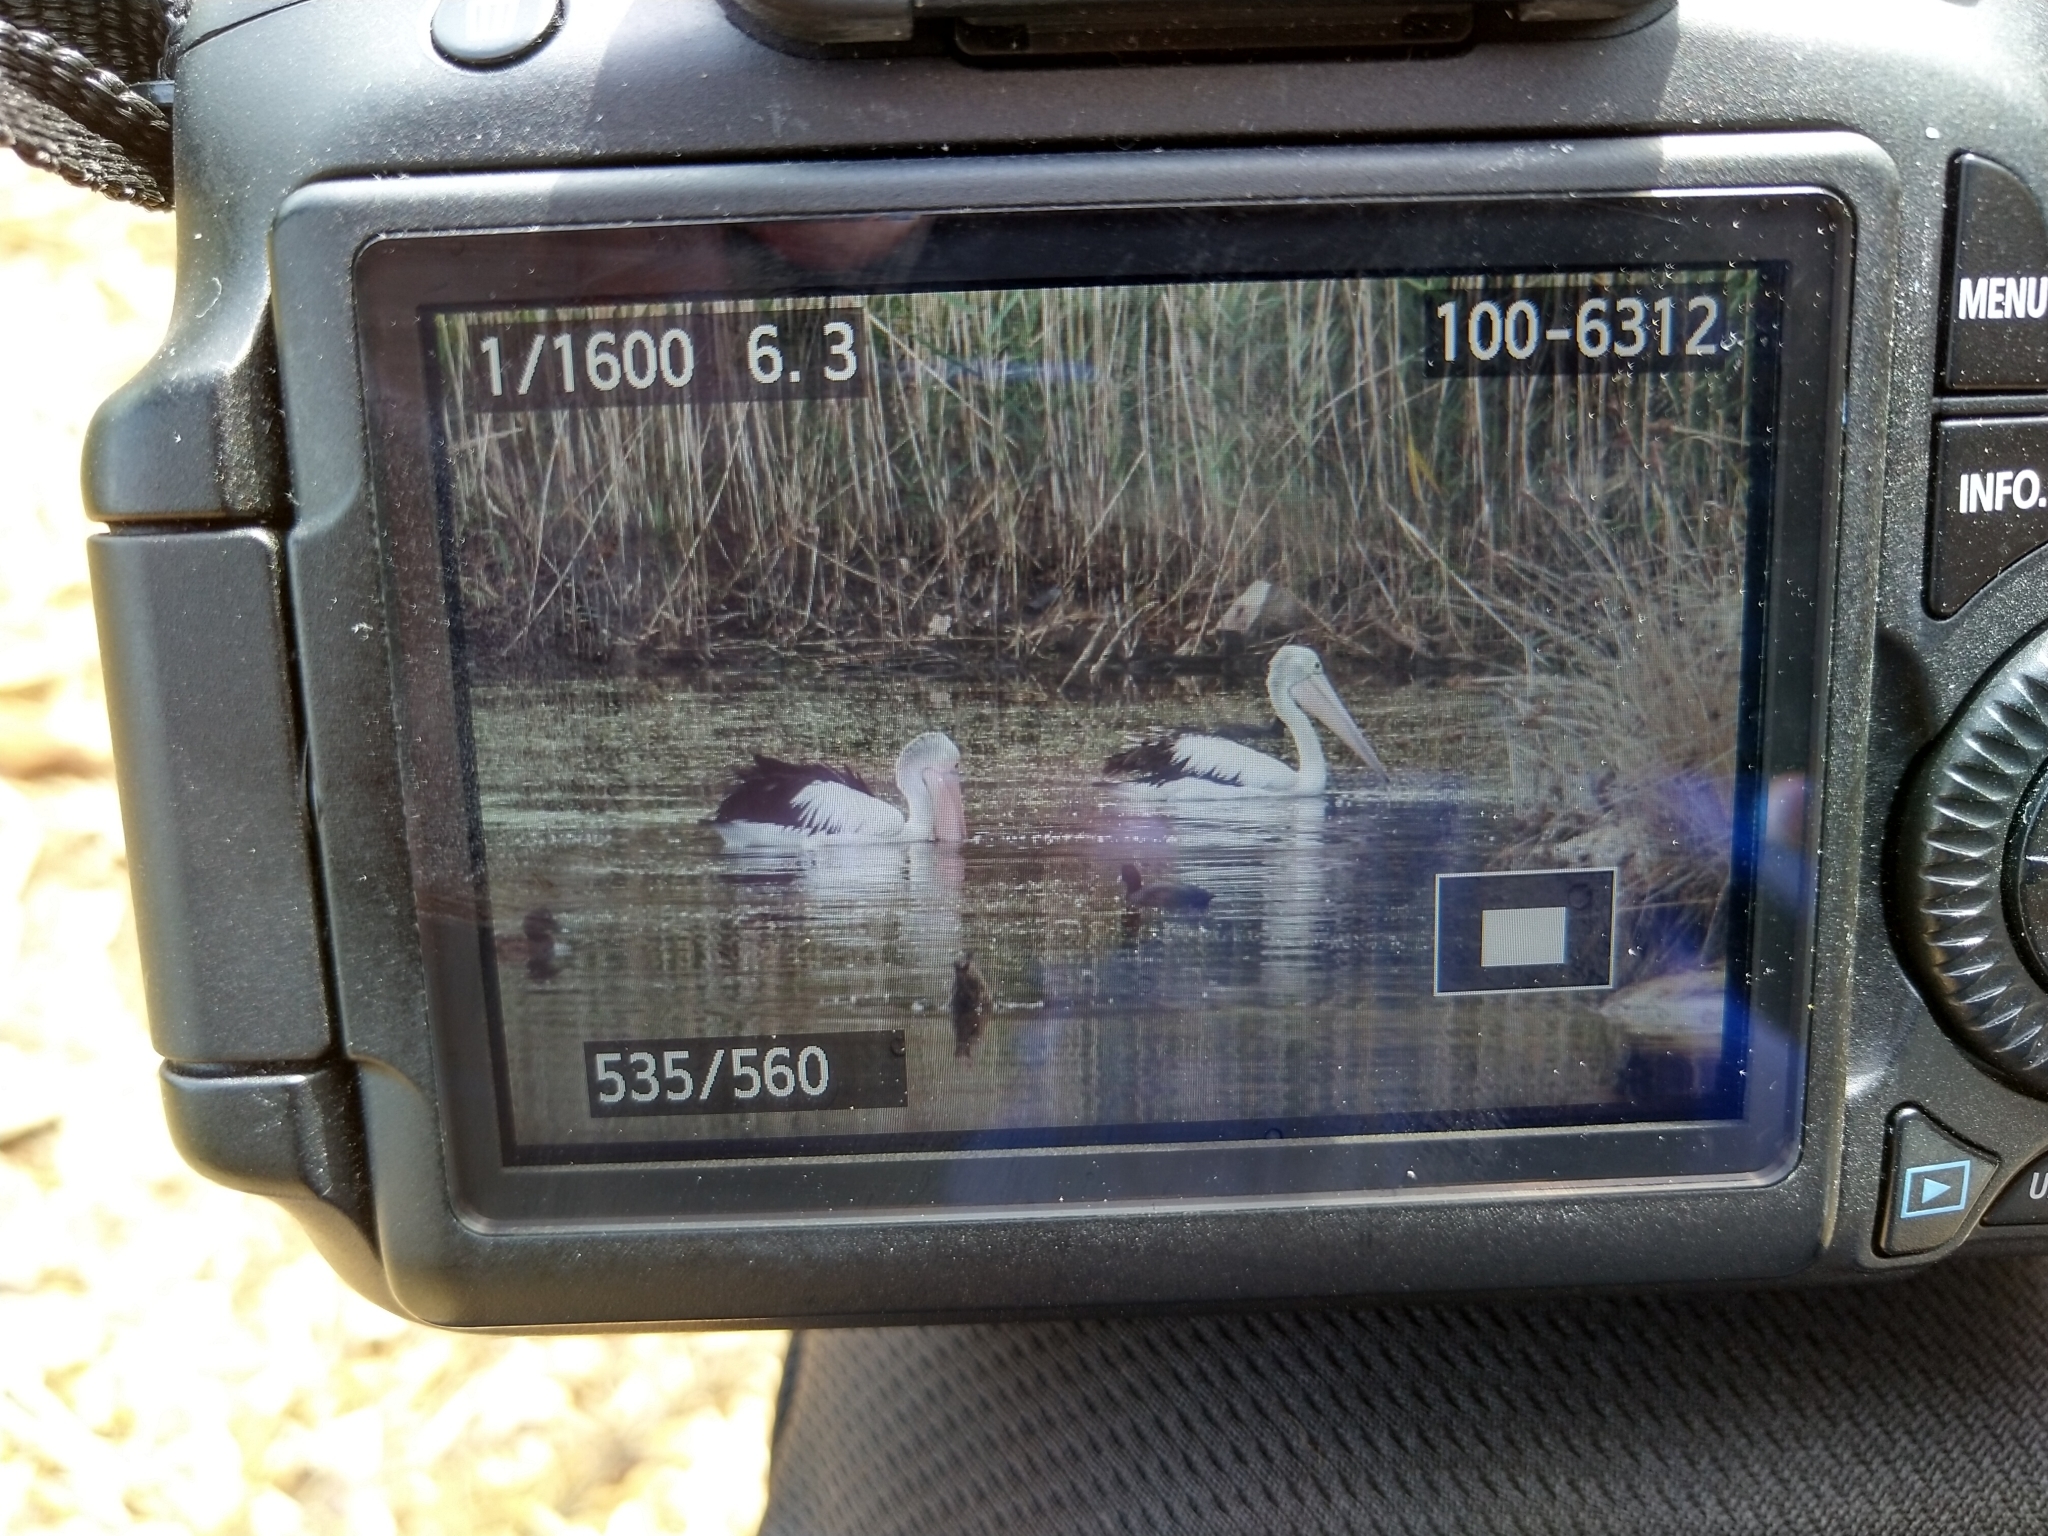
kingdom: Animalia
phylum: Chordata
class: Aves
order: Pelecaniformes
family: Pelecanidae
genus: Pelecanus
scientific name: Pelecanus conspicillatus
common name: Australian pelican
